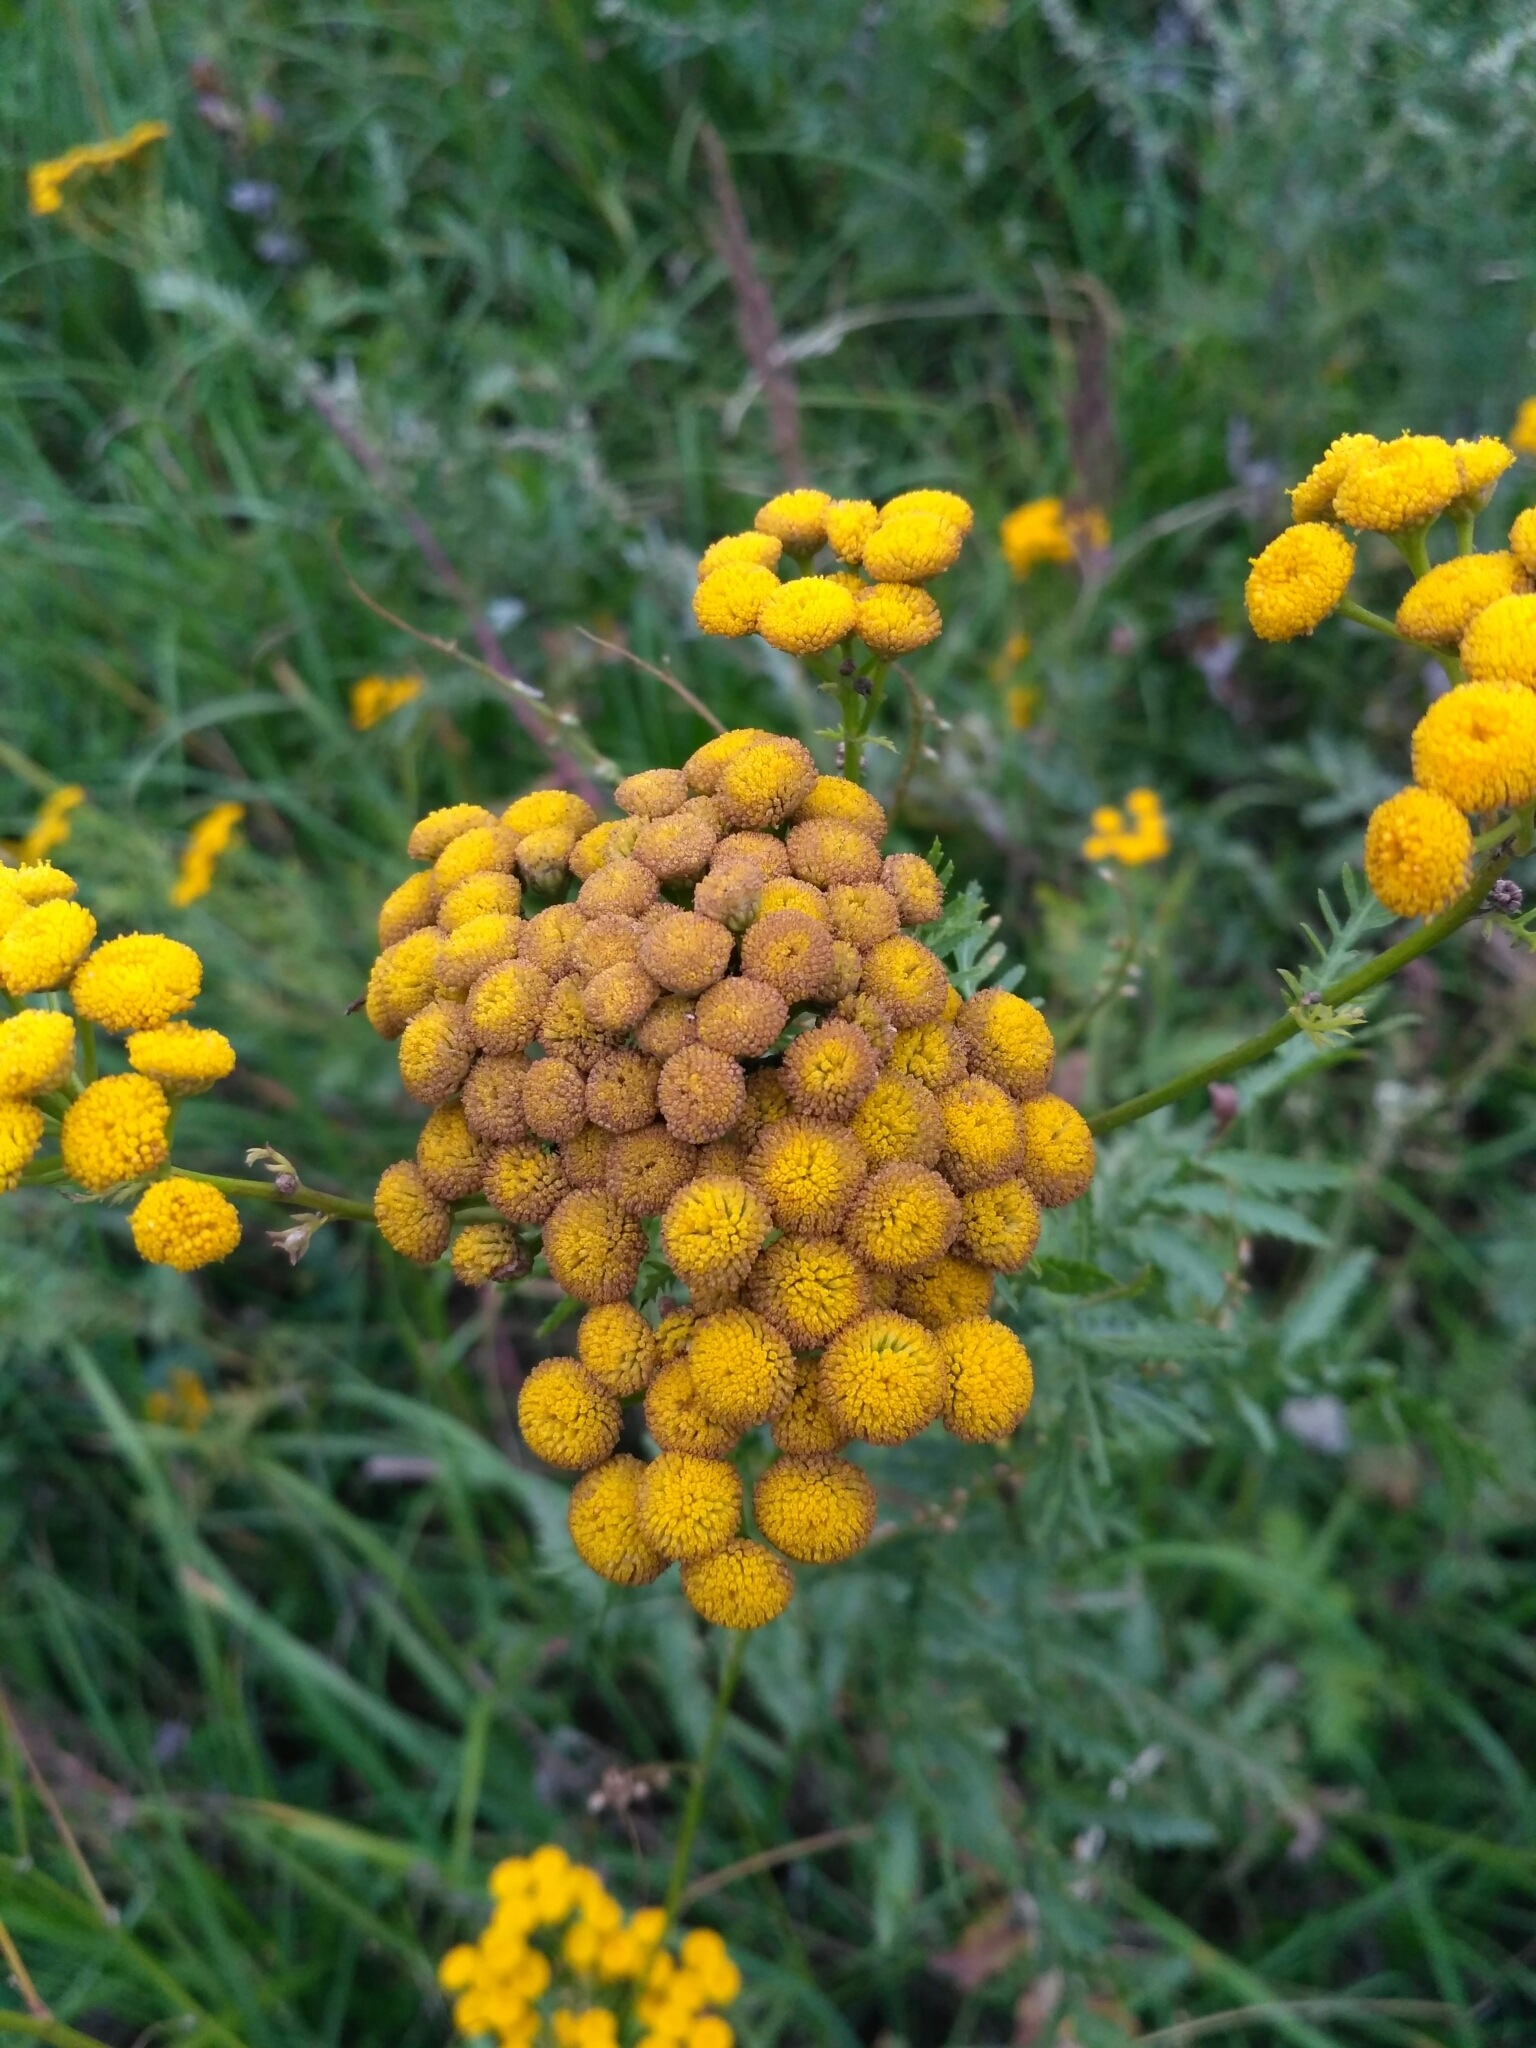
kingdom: Plantae
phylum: Tracheophyta
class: Magnoliopsida
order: Asterales
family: Asteraceae
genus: Tanacetum
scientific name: Tanacetum vulgare
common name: Common tansy
